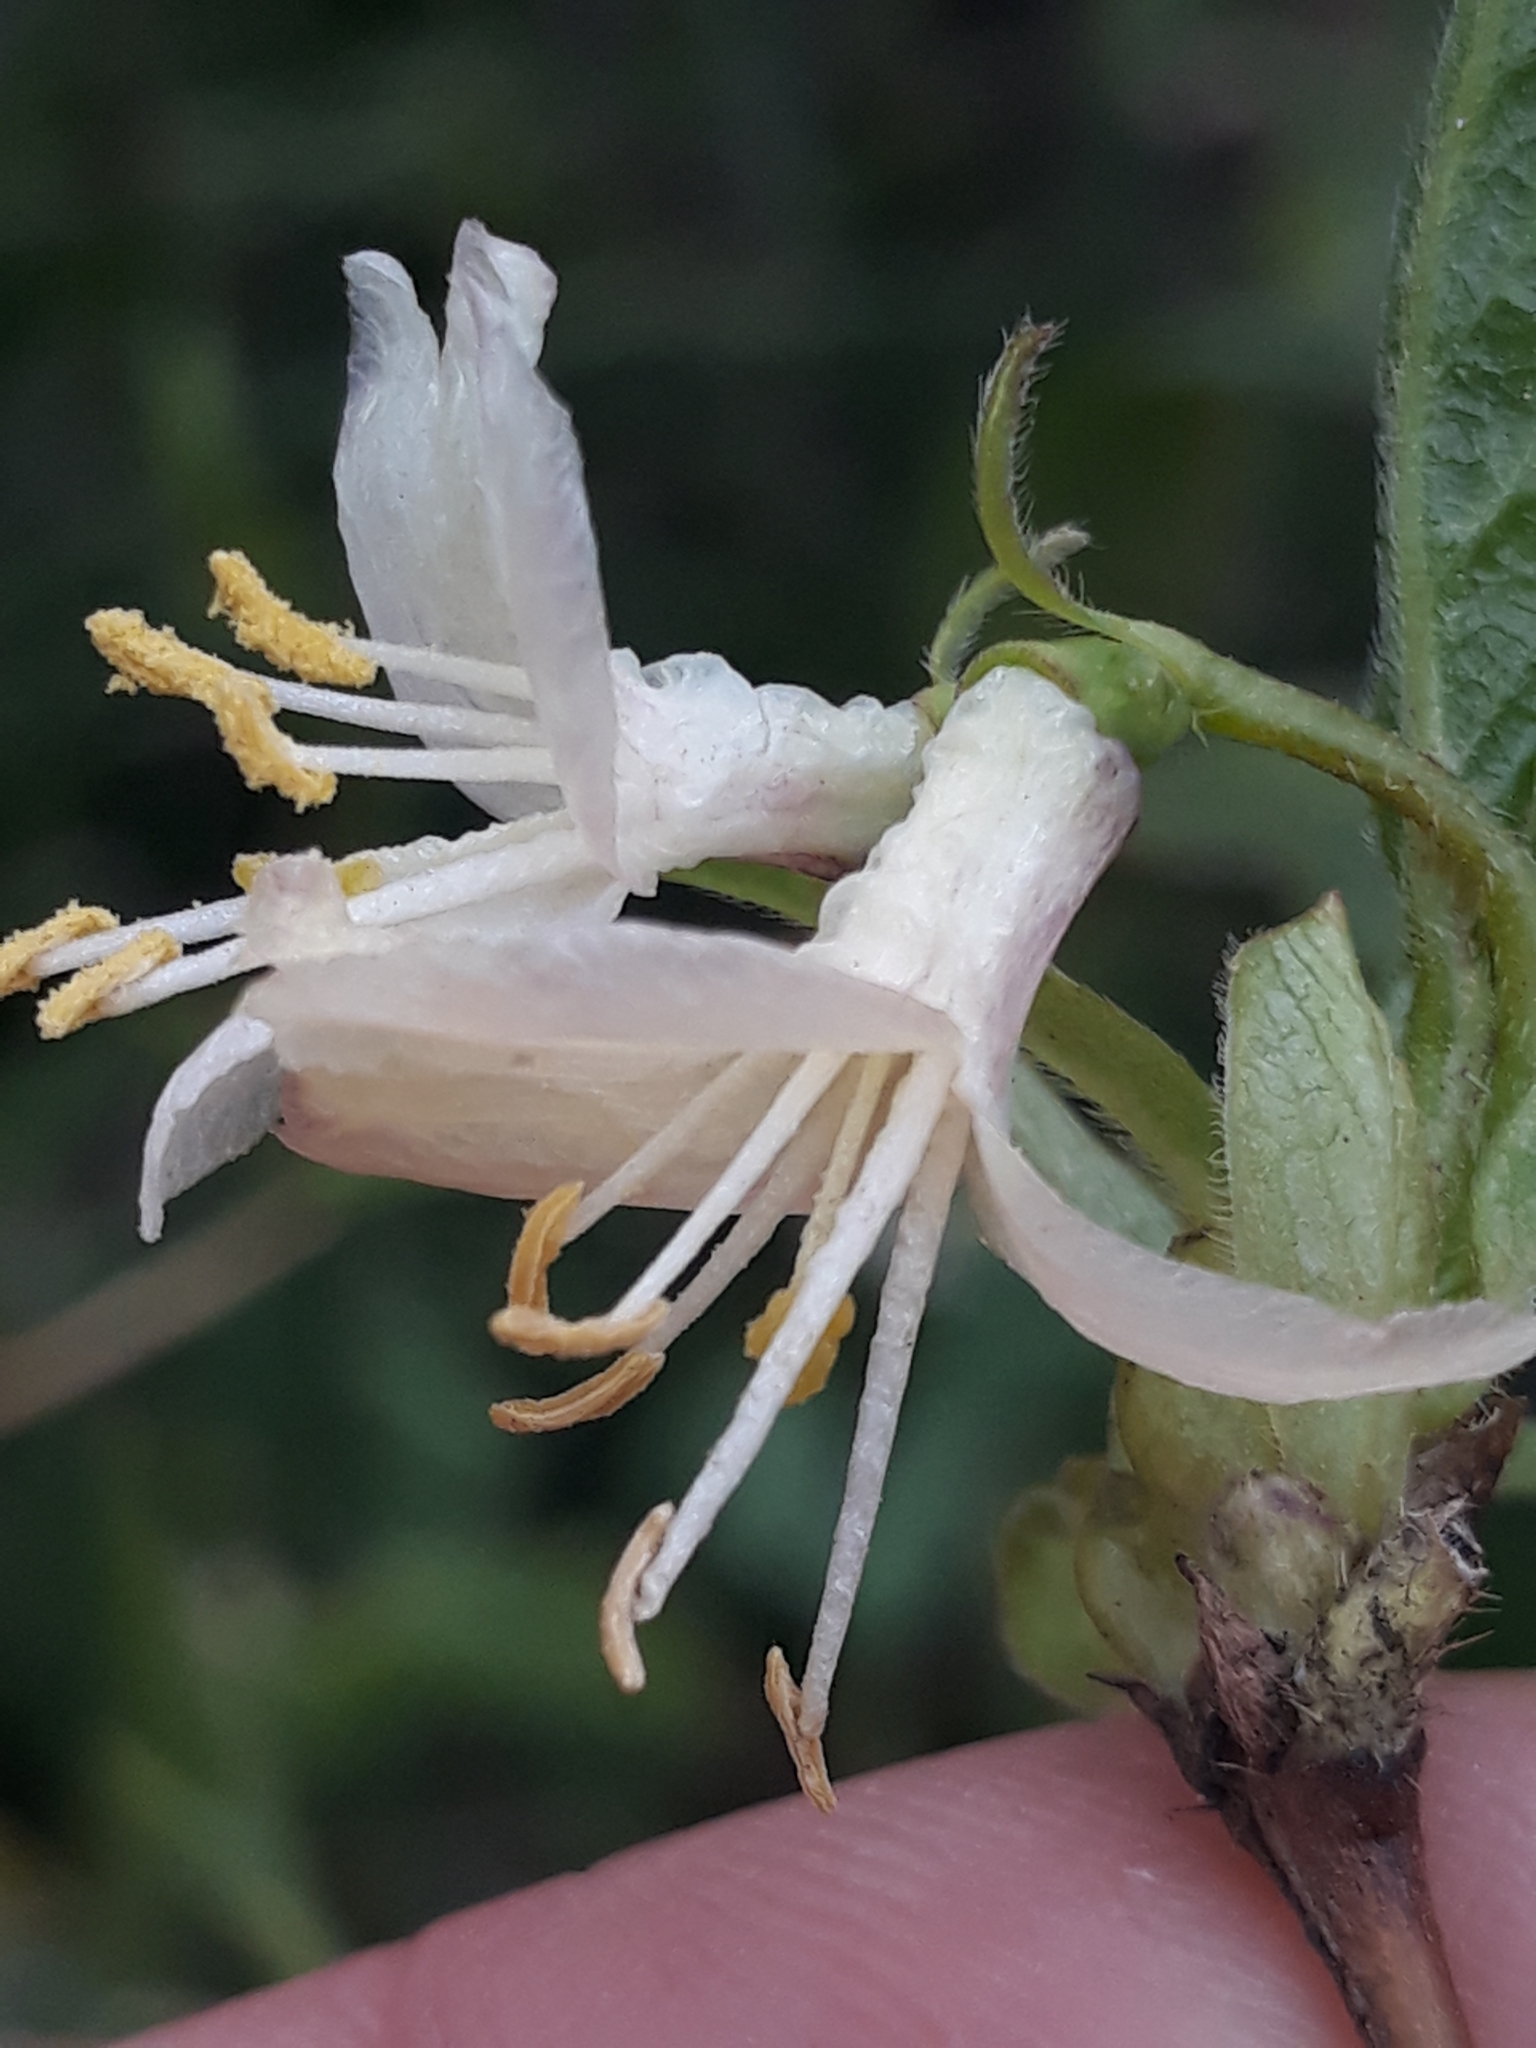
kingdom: Plantae
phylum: Tracheophyta
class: Magnoliopsida
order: Dipsacales
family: Caprifoliaceae
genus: Lonicera
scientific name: Lonicera fragrantissima
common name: Fragrant honeysuckle
